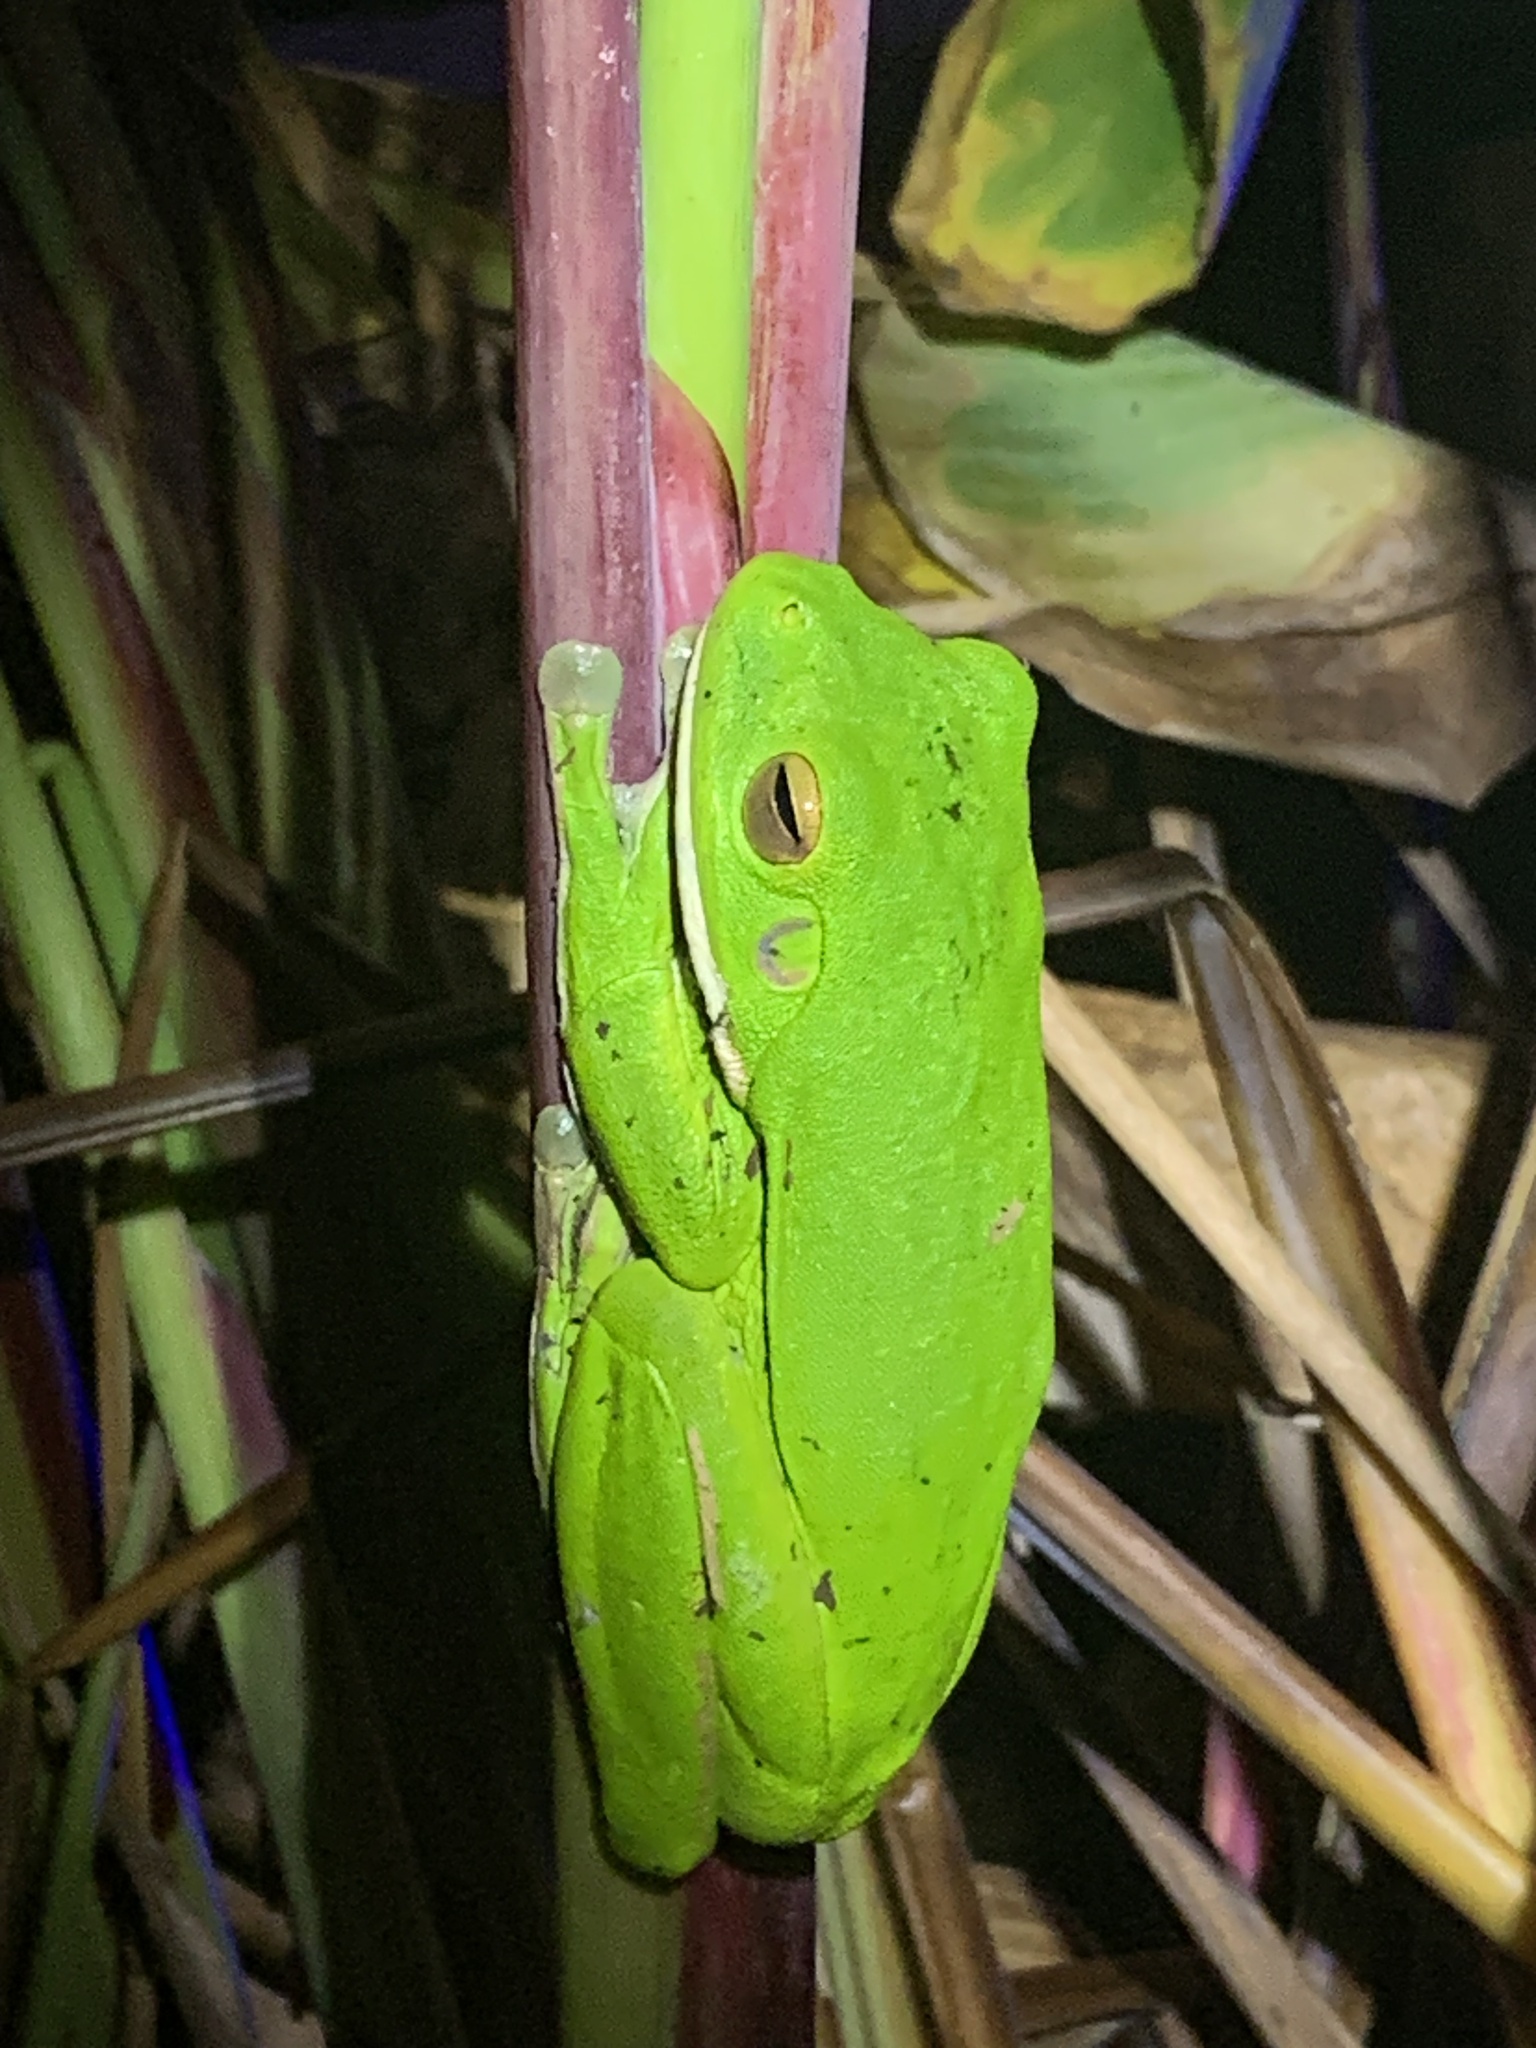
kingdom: Animalia
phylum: Chordata
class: Amphibia
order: Anura
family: Pelodryadidae
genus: Nyctimystes
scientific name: Nyctimystes infrafrenatus
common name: Australian giant treefrog
